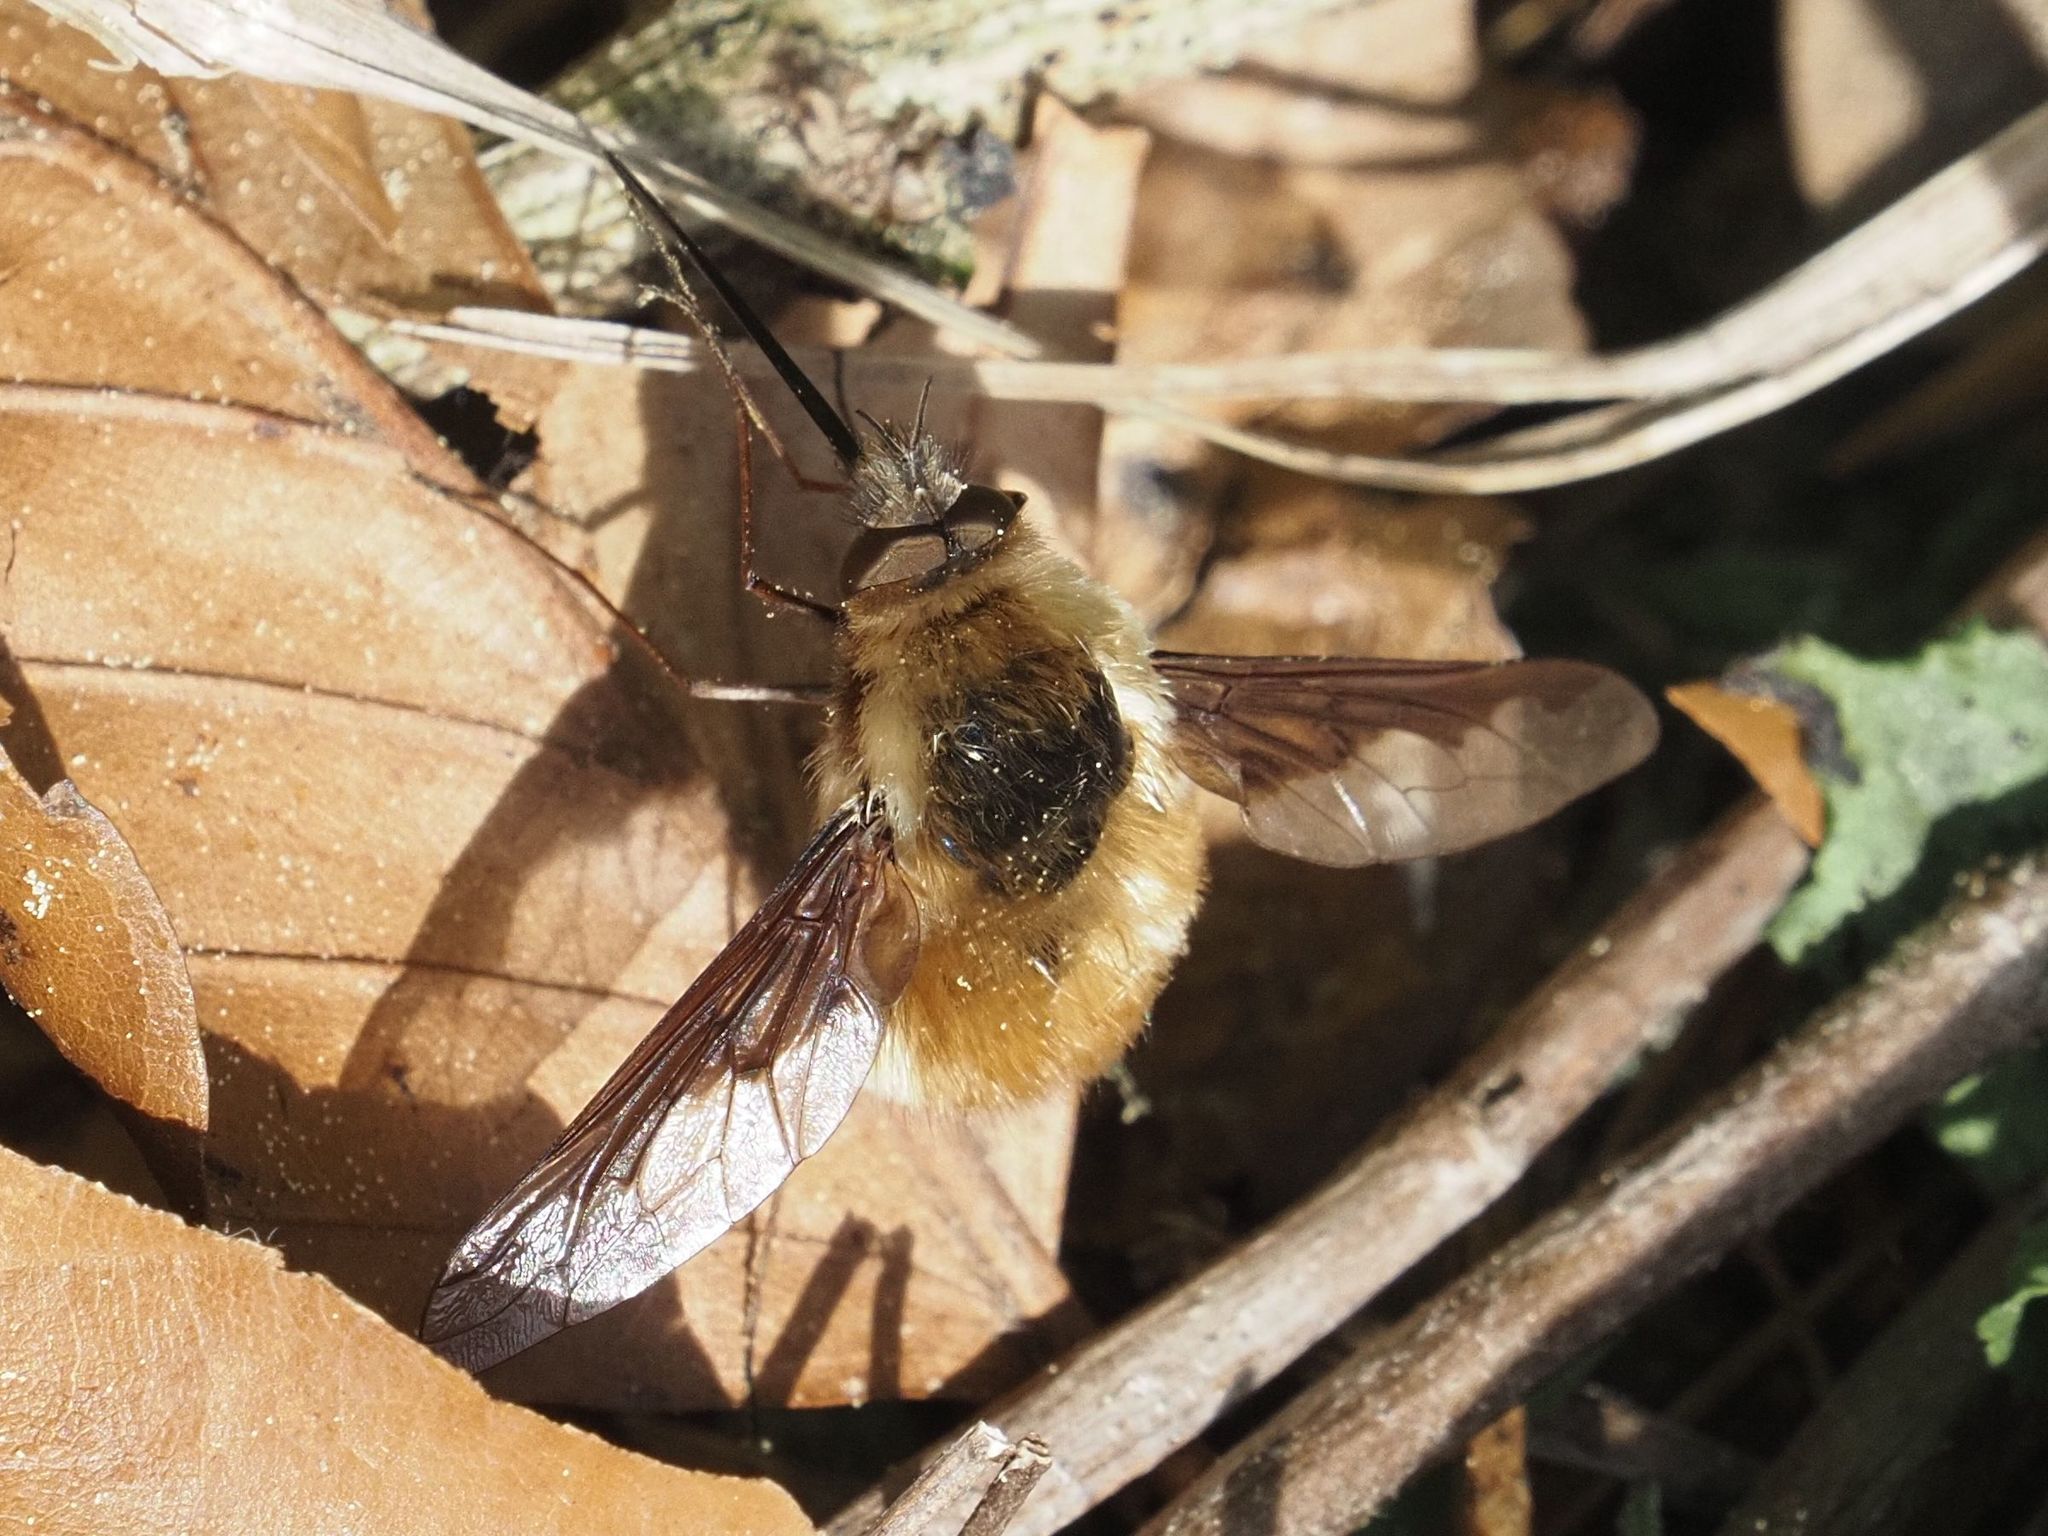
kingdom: Animalia
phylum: Arthropoda
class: Insecta
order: Diptera
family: Bombyliidae
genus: Bombylius
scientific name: Bombylius major
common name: Bee fly
